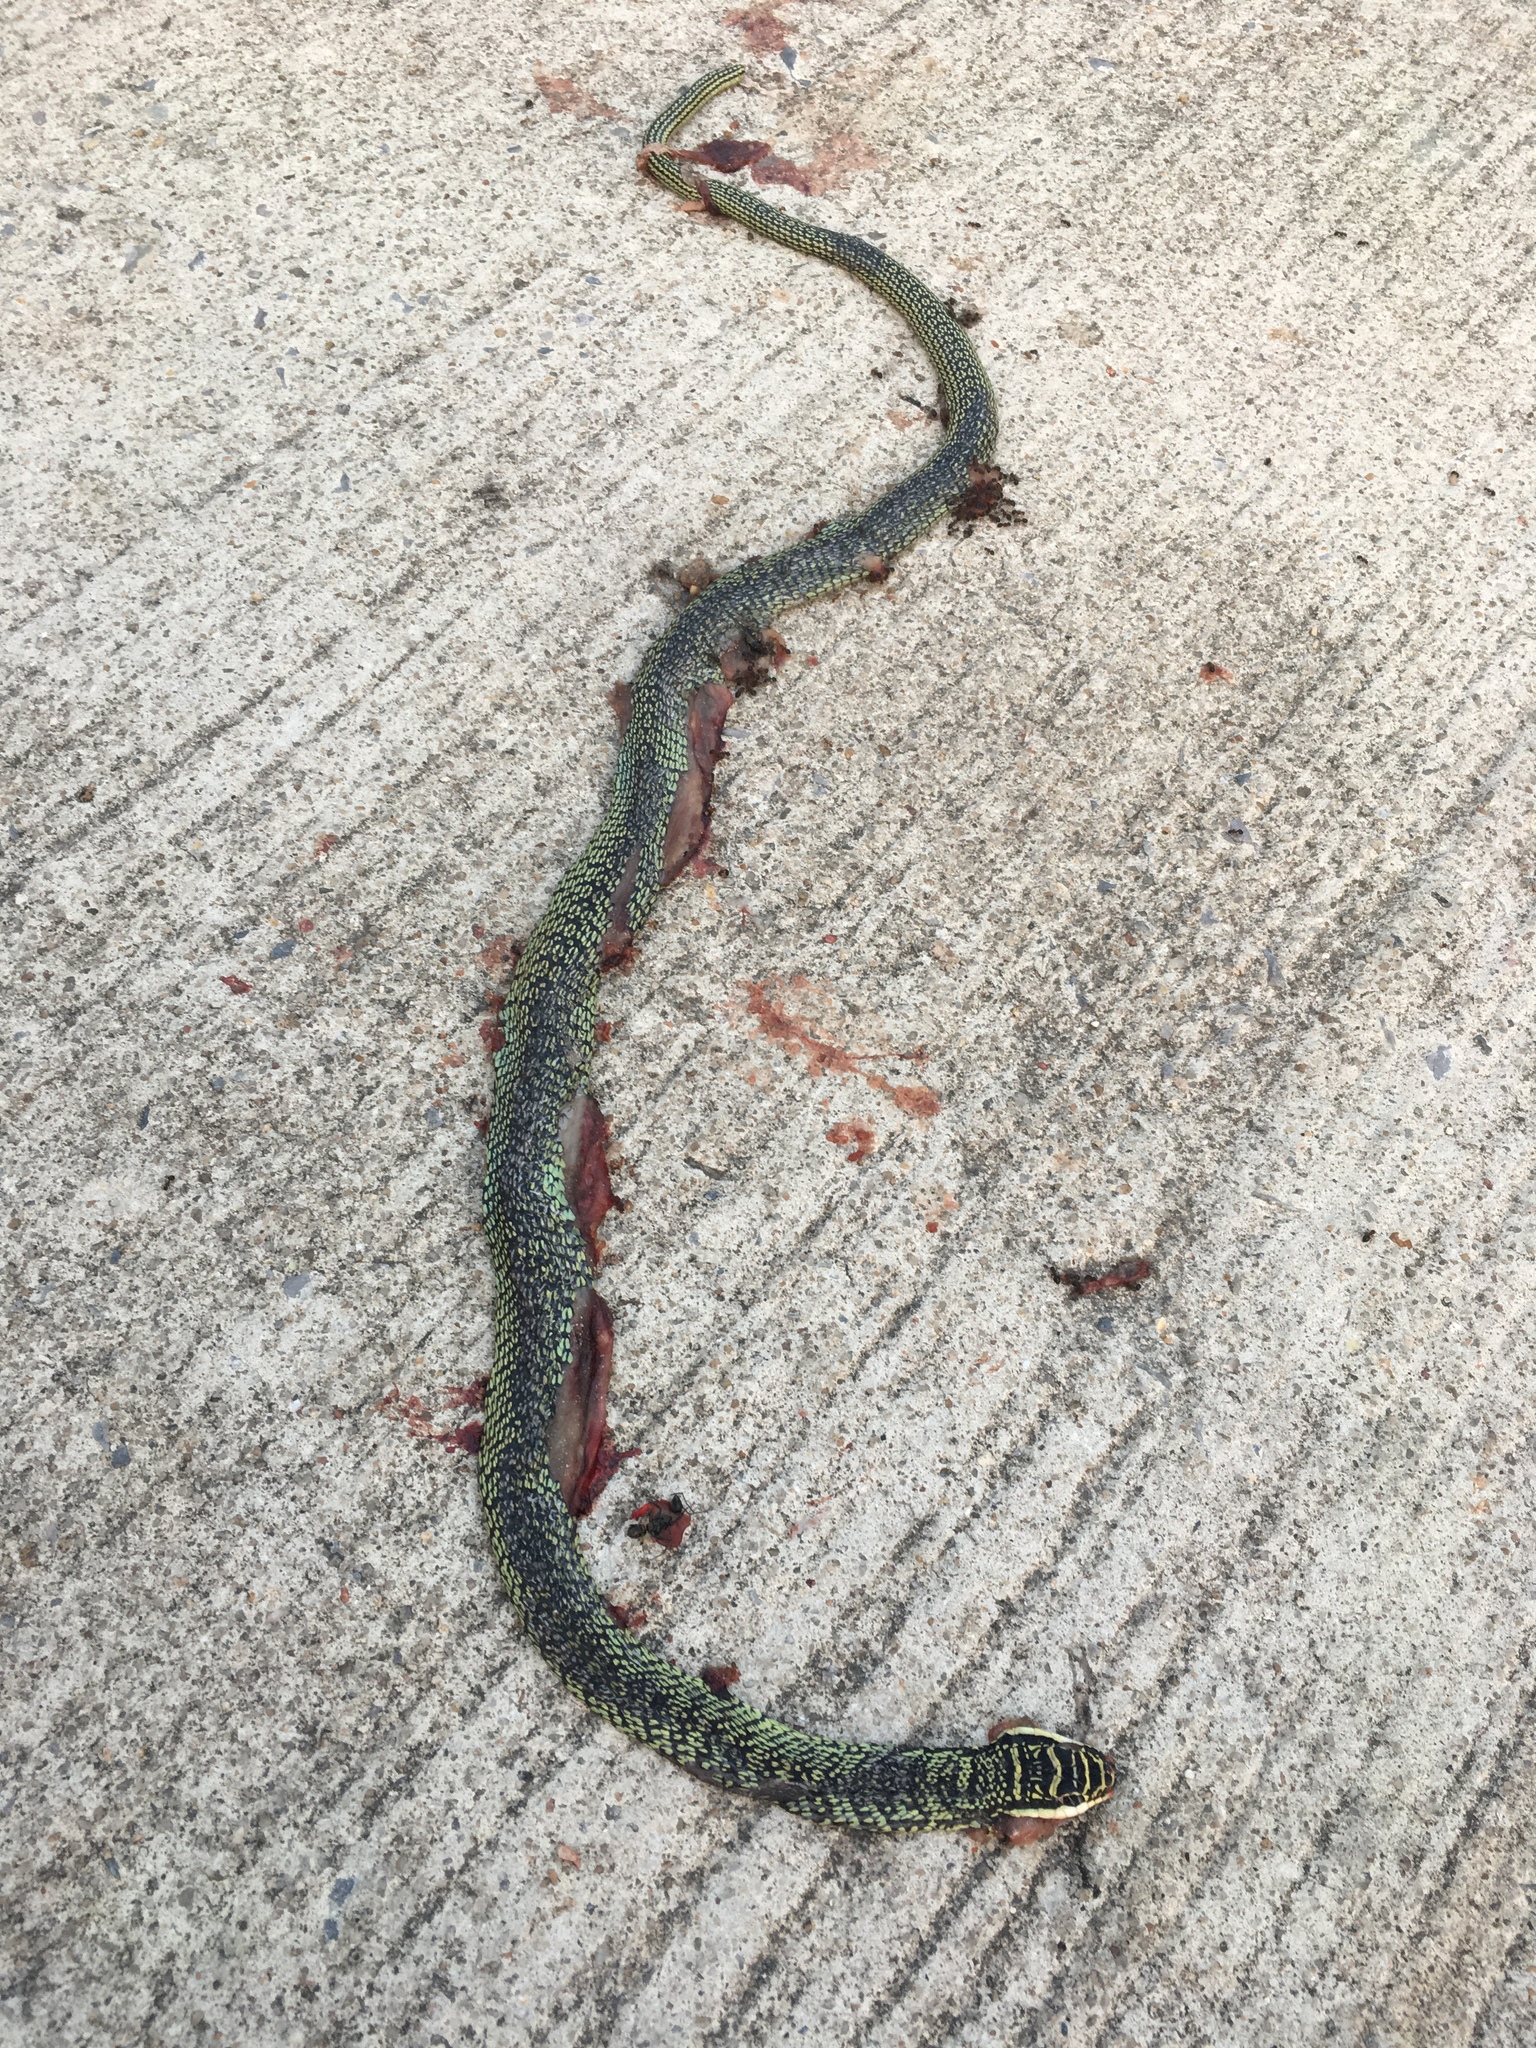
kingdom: Animalia
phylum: Chordata
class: Squamata
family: Colubridae
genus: Chrysopelea
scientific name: Chrysopelea ornata
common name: Golden flying snake
